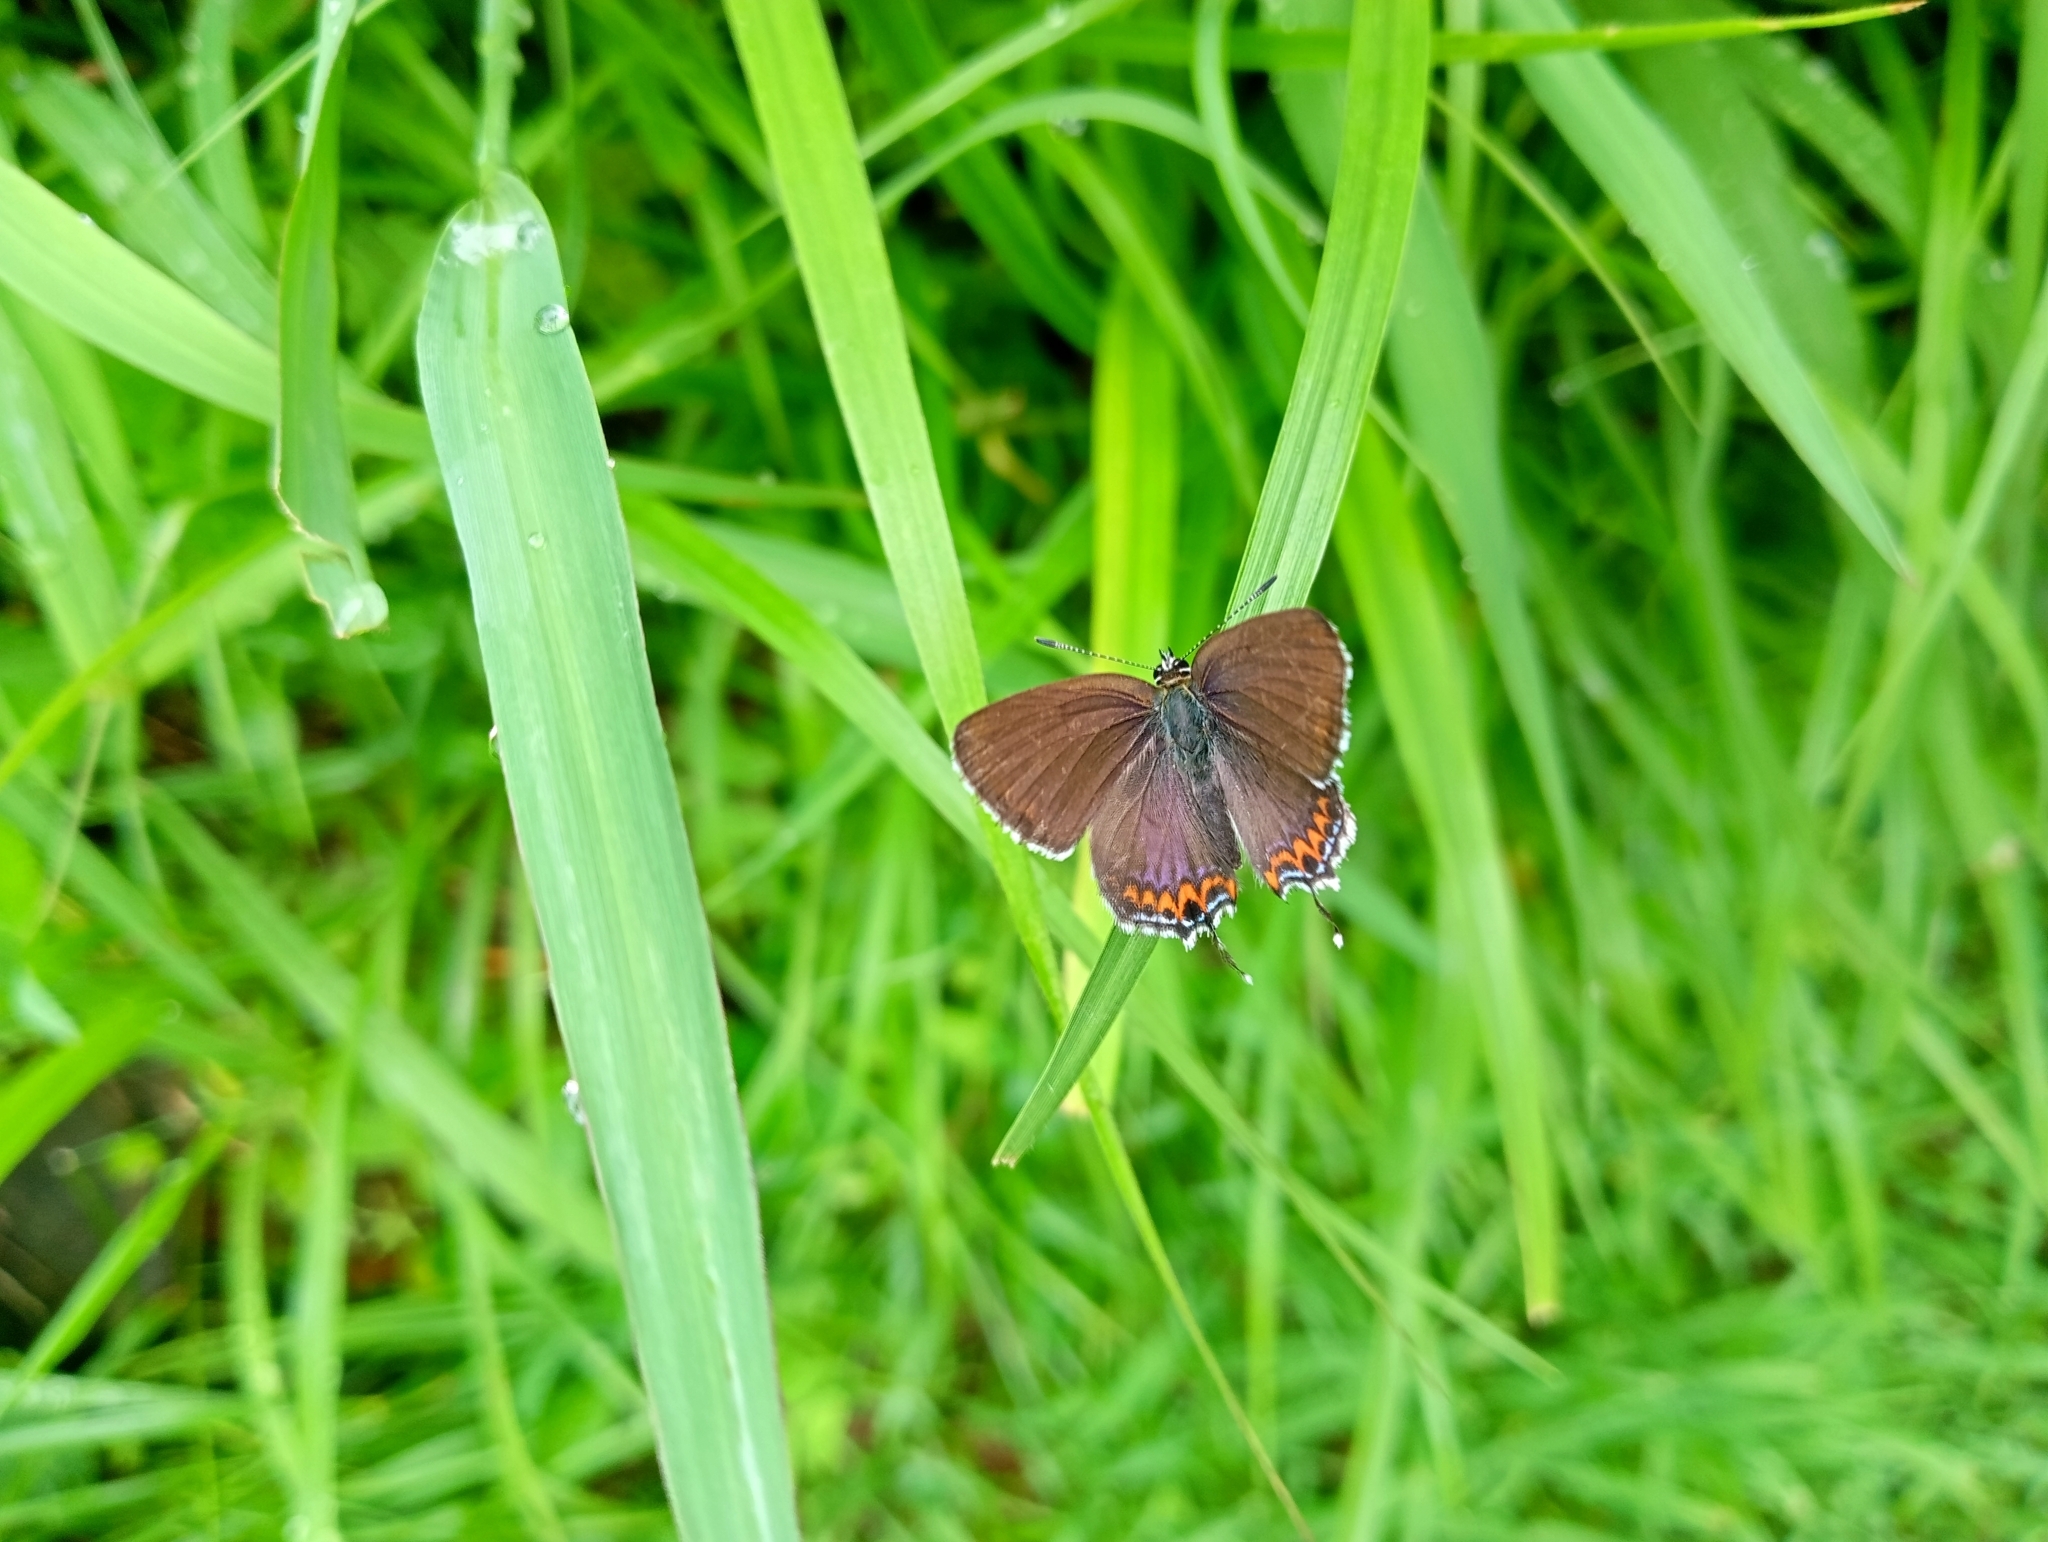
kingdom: Animalia
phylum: Arthropoda
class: Insecta
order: Lepidoptera
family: Lycaenidae
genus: Heliophorus
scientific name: Heliophorus sena
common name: Sorrel sapphire
